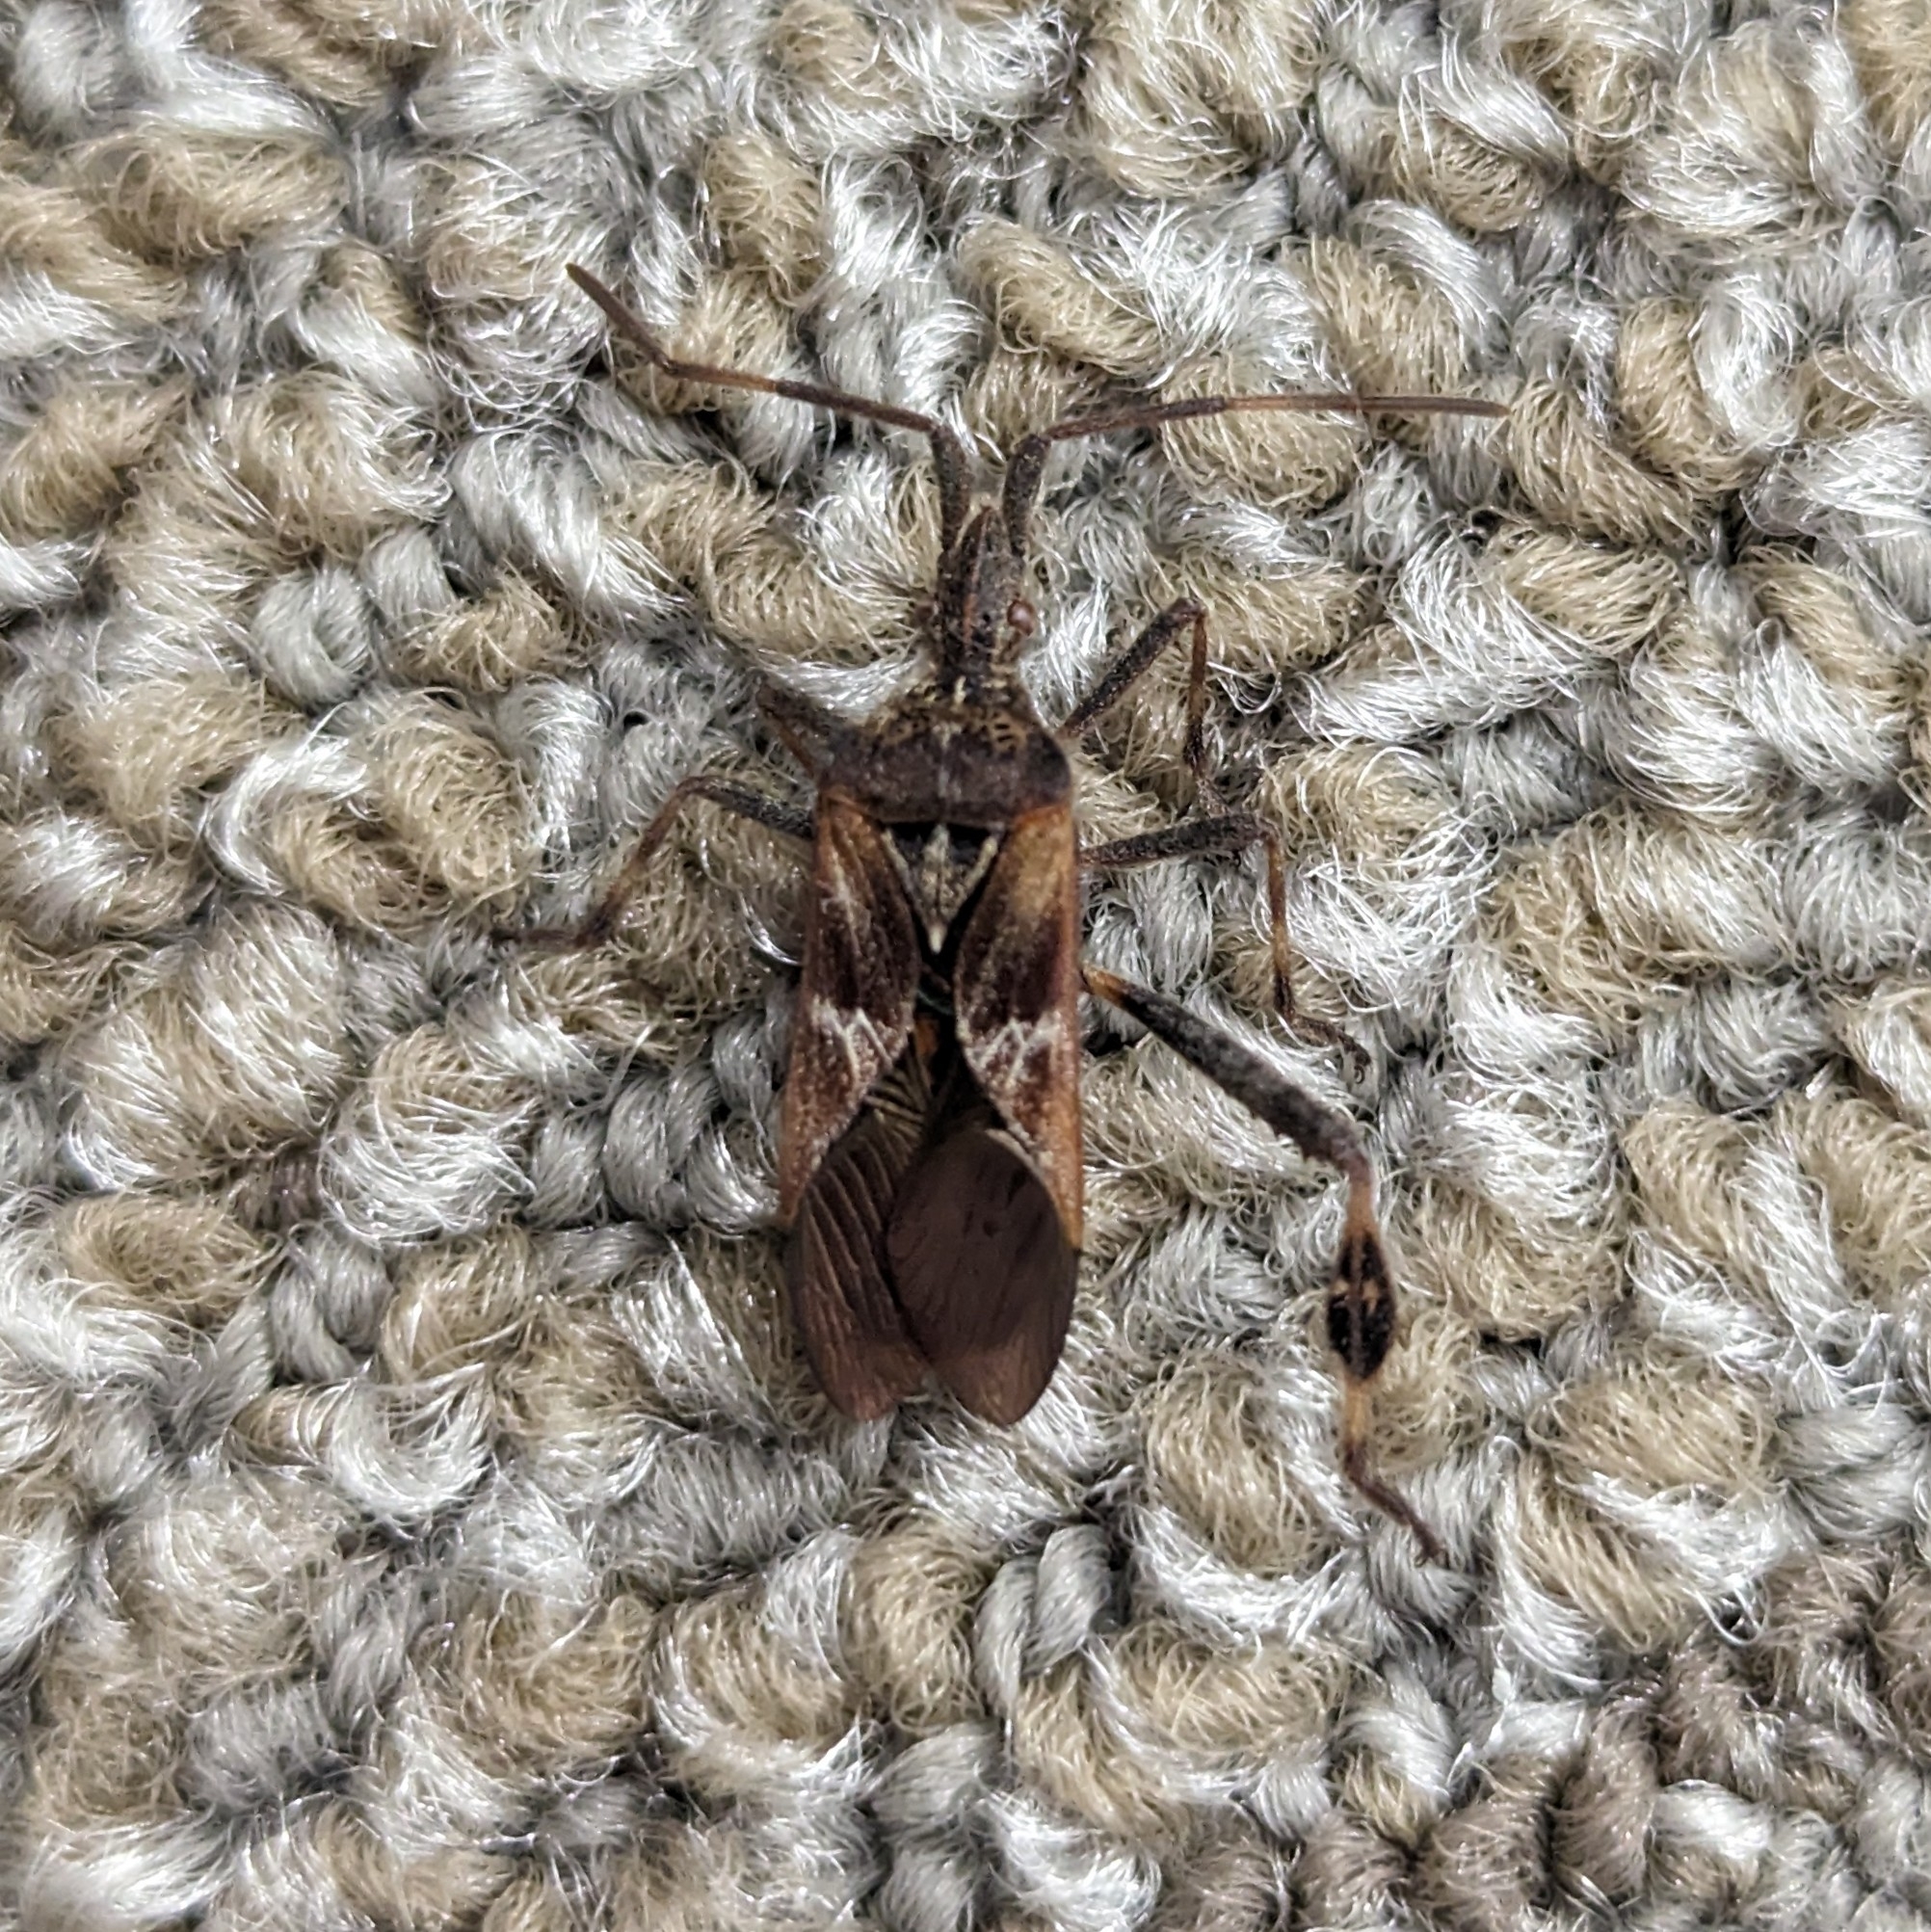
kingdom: Animalia
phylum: Arthropoda
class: Insecta
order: Hemiptera
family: Coreidae
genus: Leptoglossus
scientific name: Leptoglossus occidentalis
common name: Western conifer-seed bug
